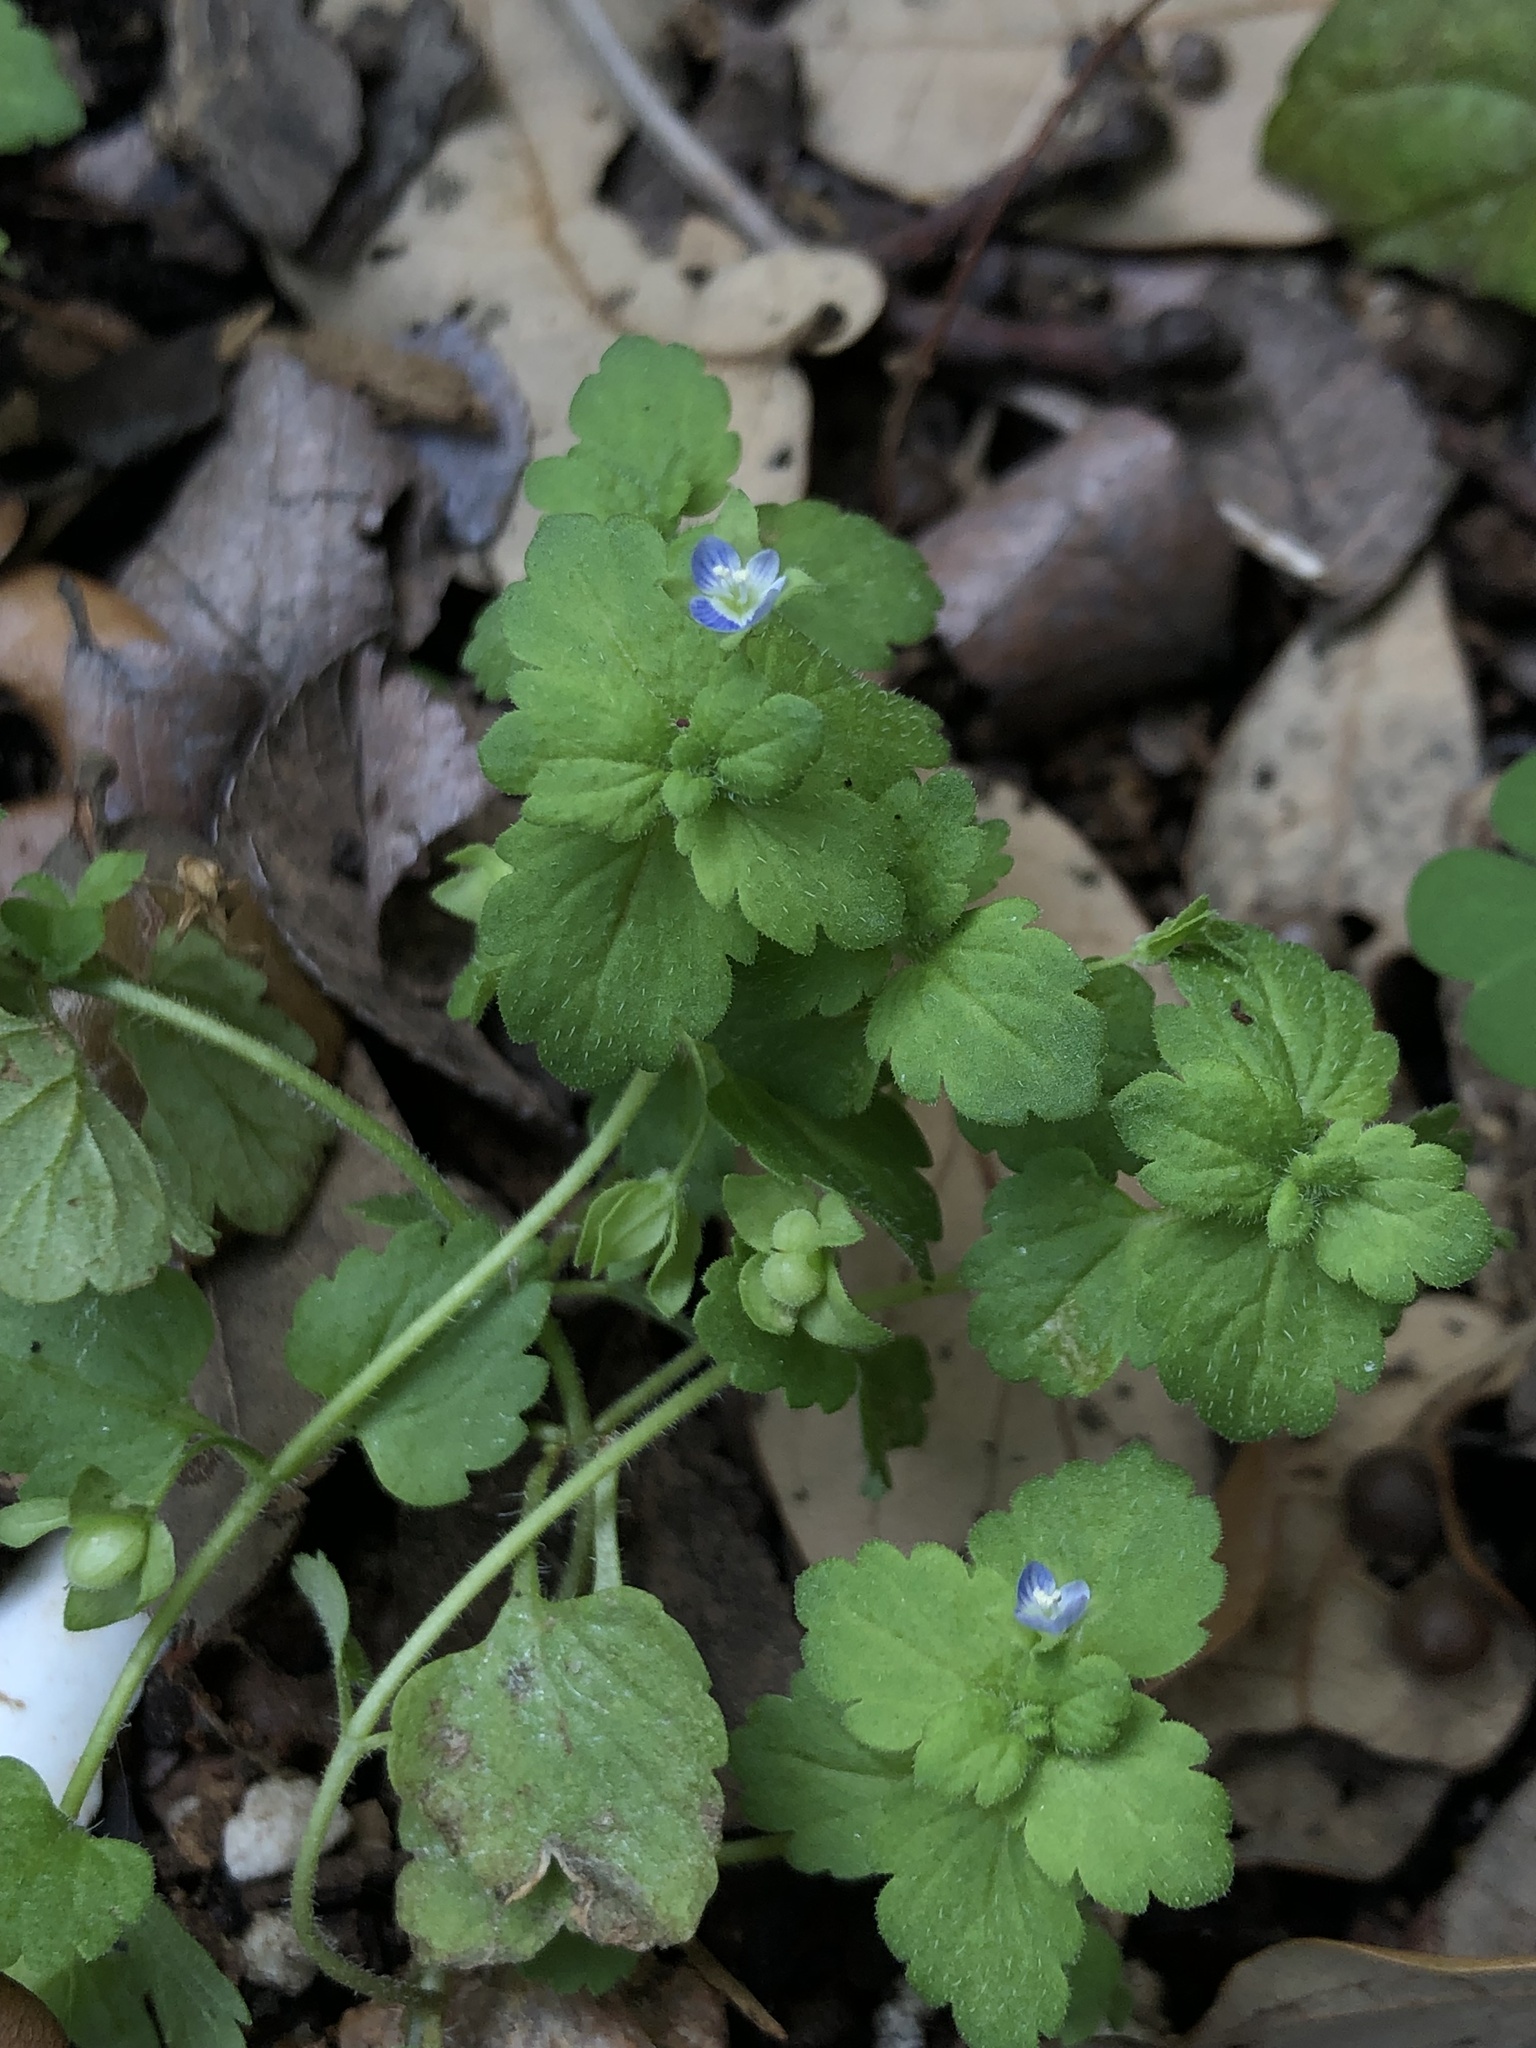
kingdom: Plantae
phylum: Tracheophyta
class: Magnoliopsida
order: Lamiales
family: Plantaginaceae
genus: Veronica
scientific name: Veronica polita
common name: Grey field-speedwell
